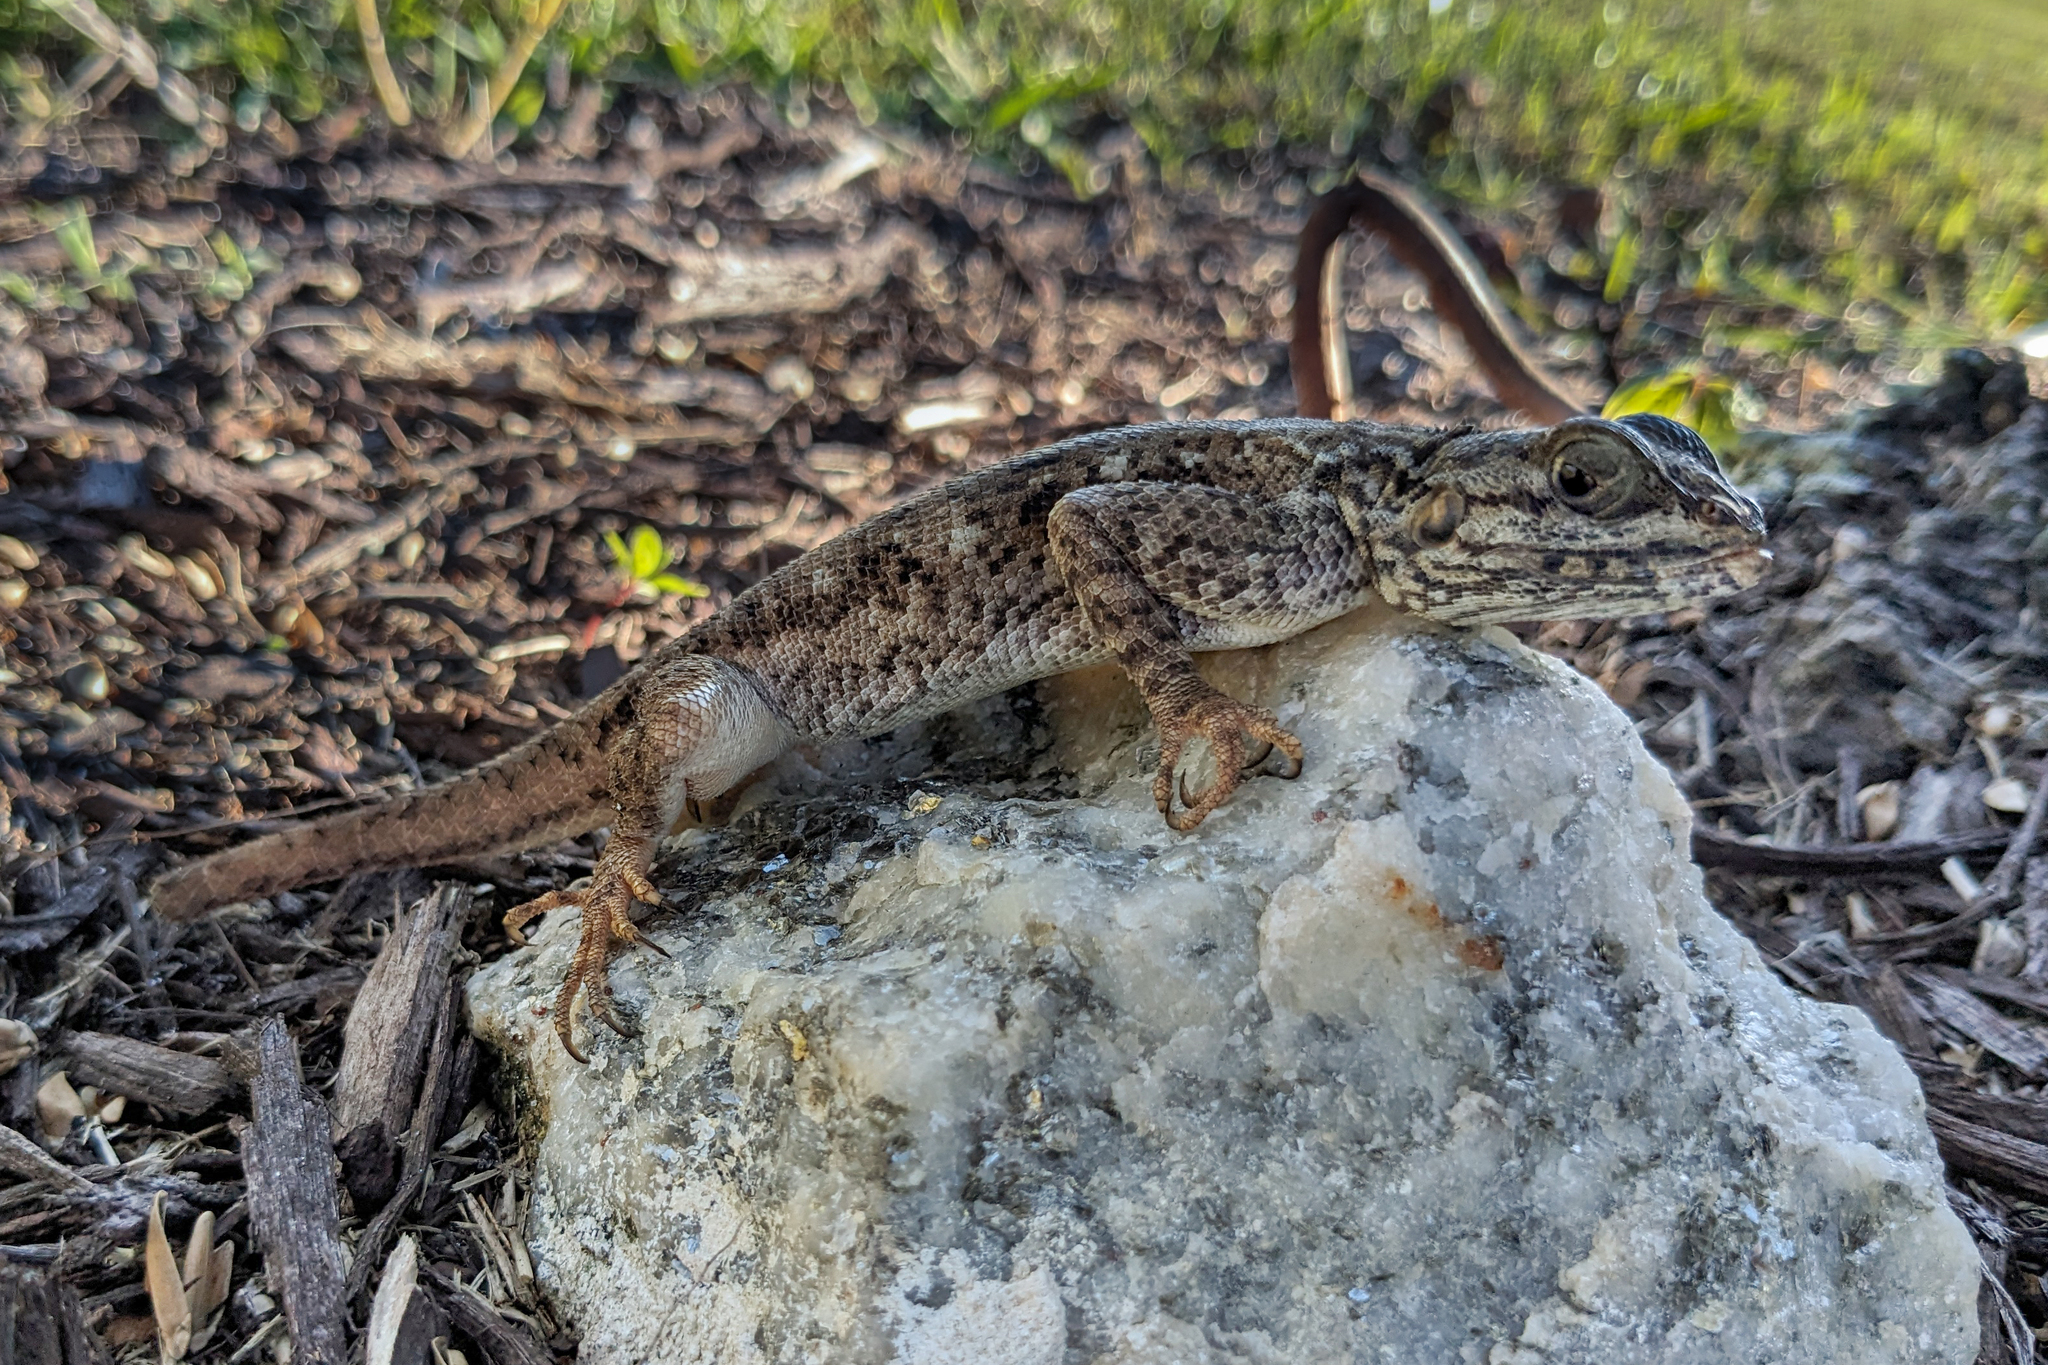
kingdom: Animalia
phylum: Chordata
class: Squamata
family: Agamidae
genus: Agama
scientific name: Agama picticauda
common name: Red-headed agama
